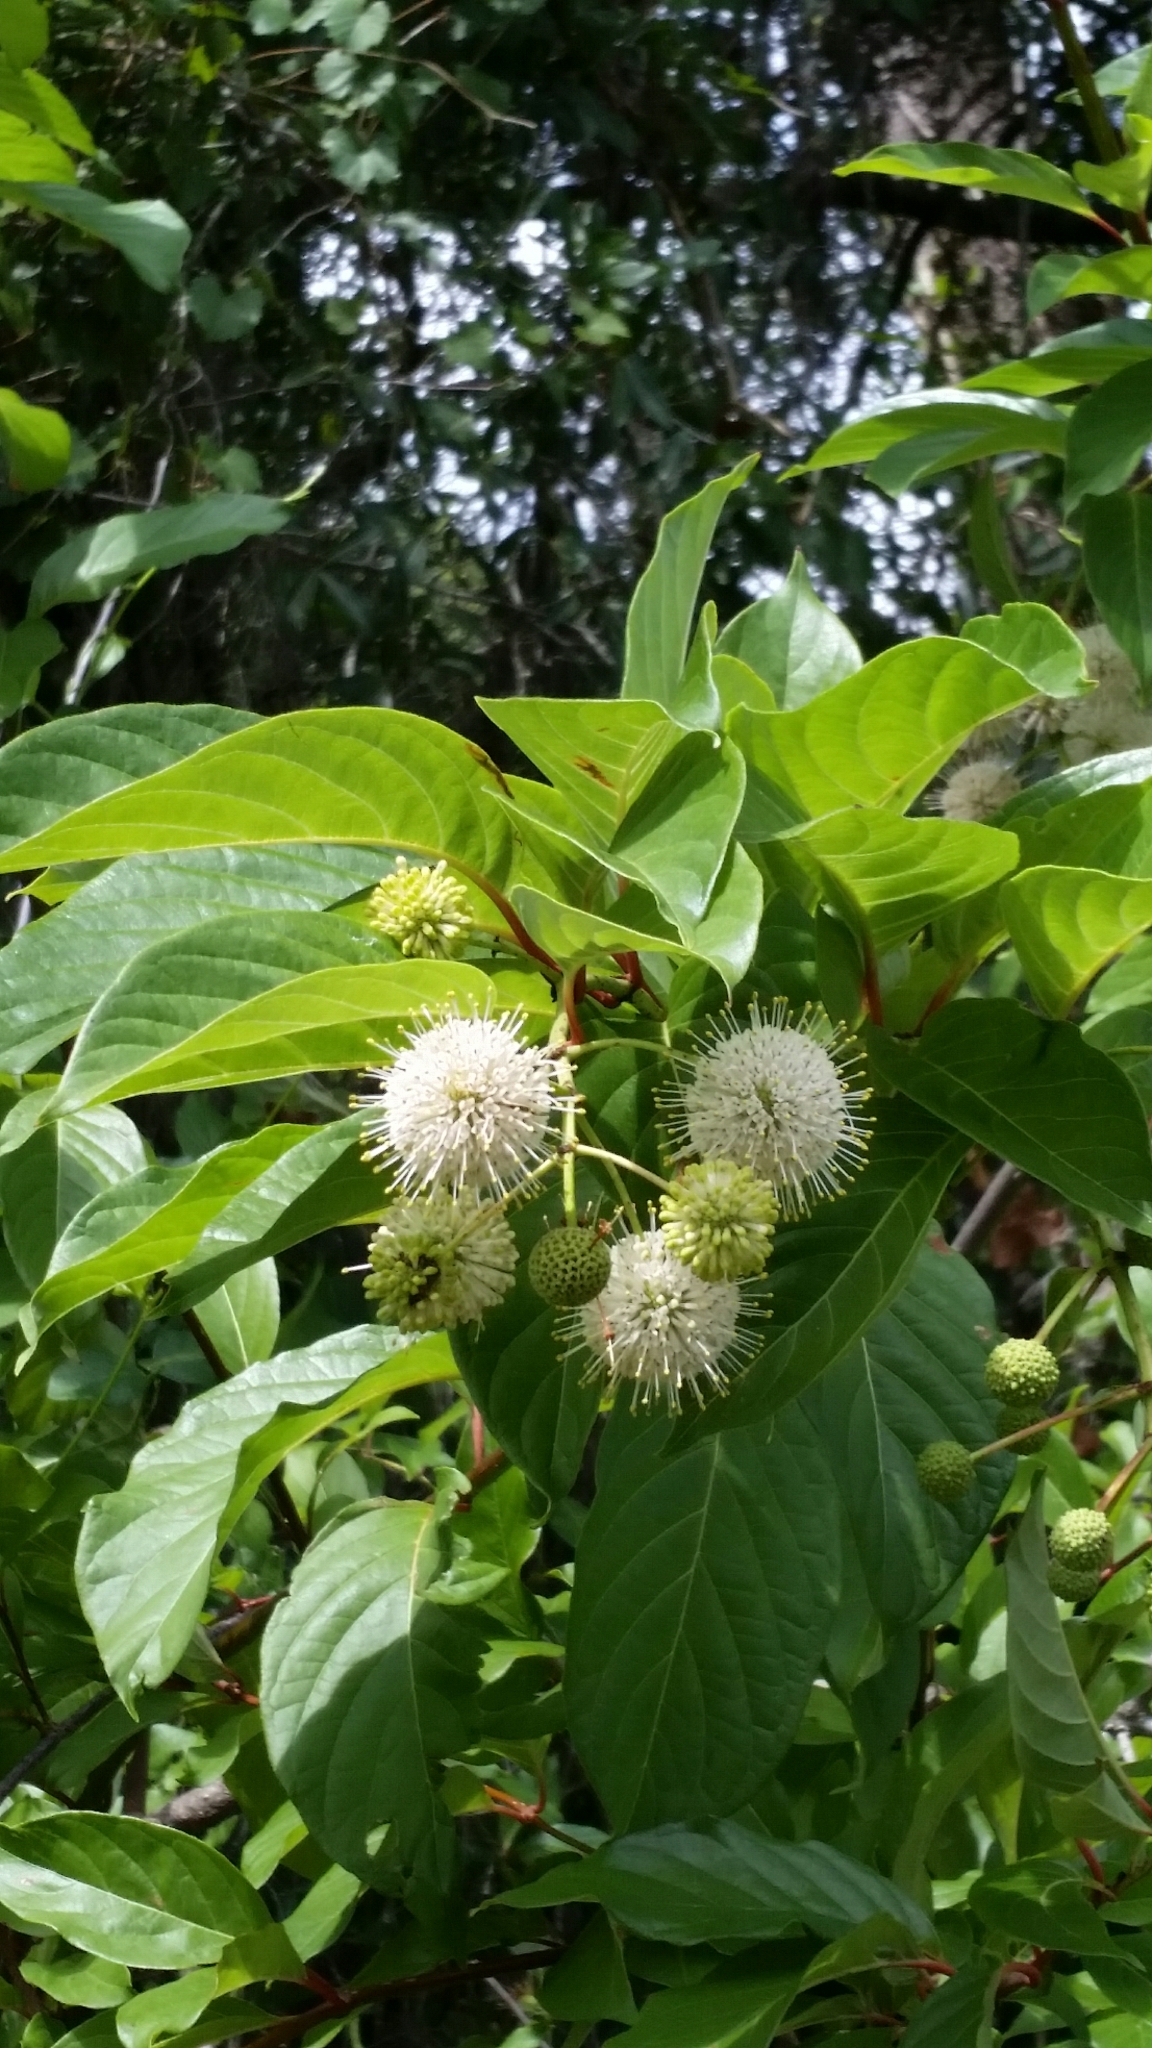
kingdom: Plantae
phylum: Tracheophyta
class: Magnoliopsida
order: Gentianales
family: Rubiaceae
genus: Cephalanthus
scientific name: Cephalanthus occidentalis
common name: Button-willow
